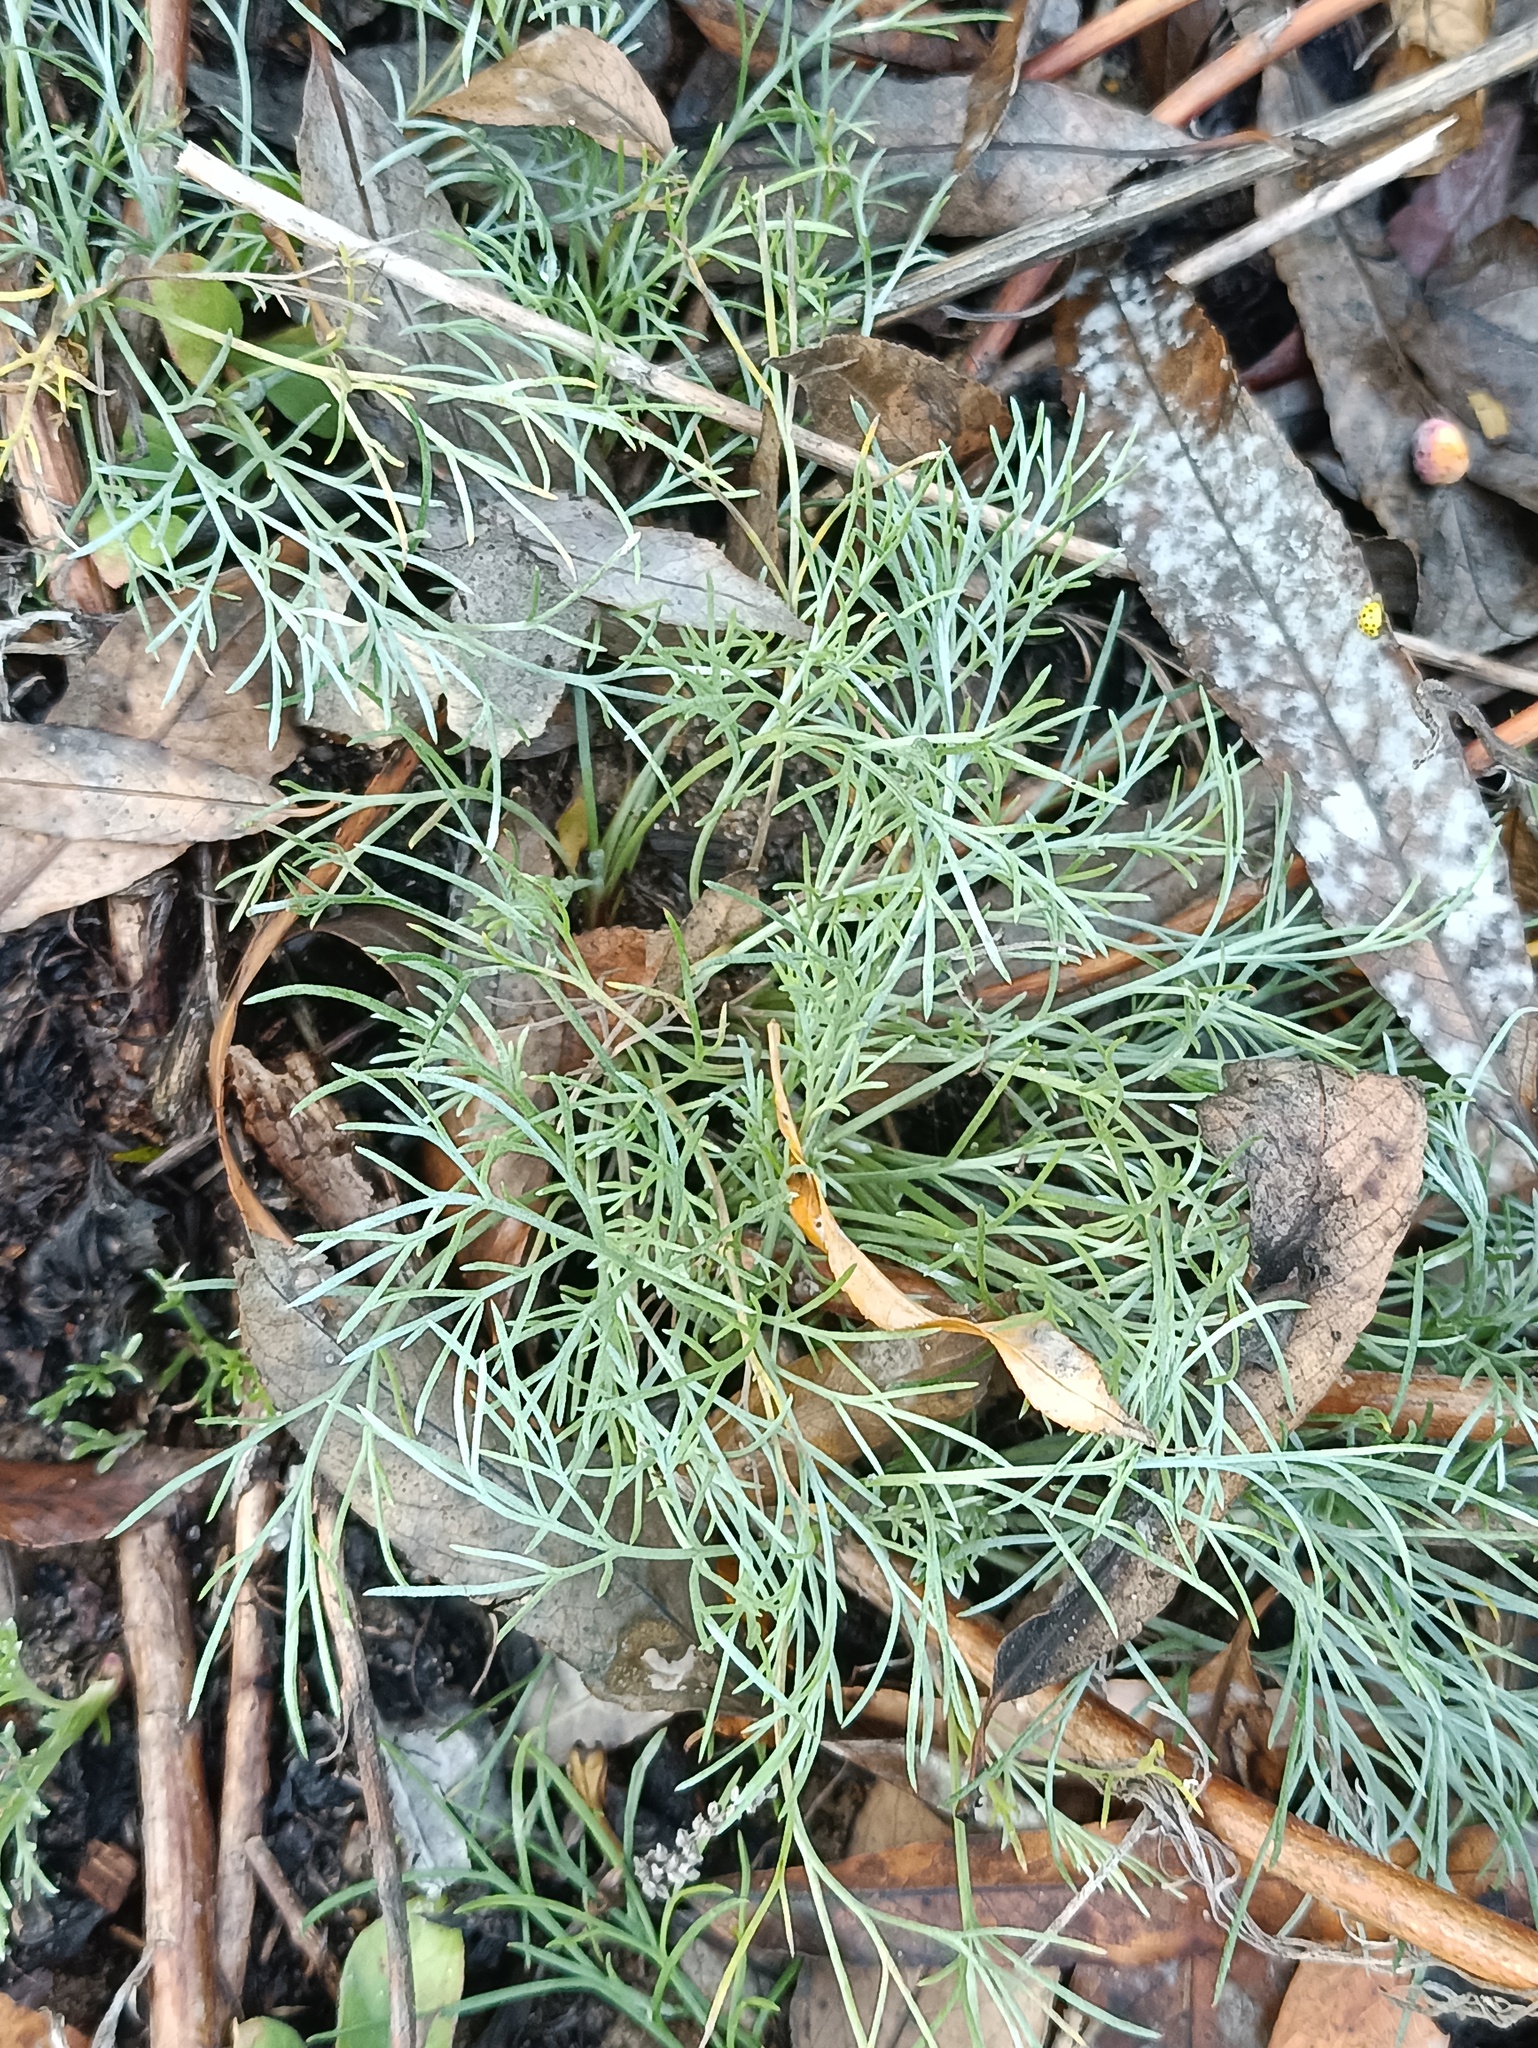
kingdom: Plantae
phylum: Tracheophyta
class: Magnoliopsida
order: Asterales
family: Asteraceae
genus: Artemisia
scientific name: Artemisia campestris
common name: Field wormwood
